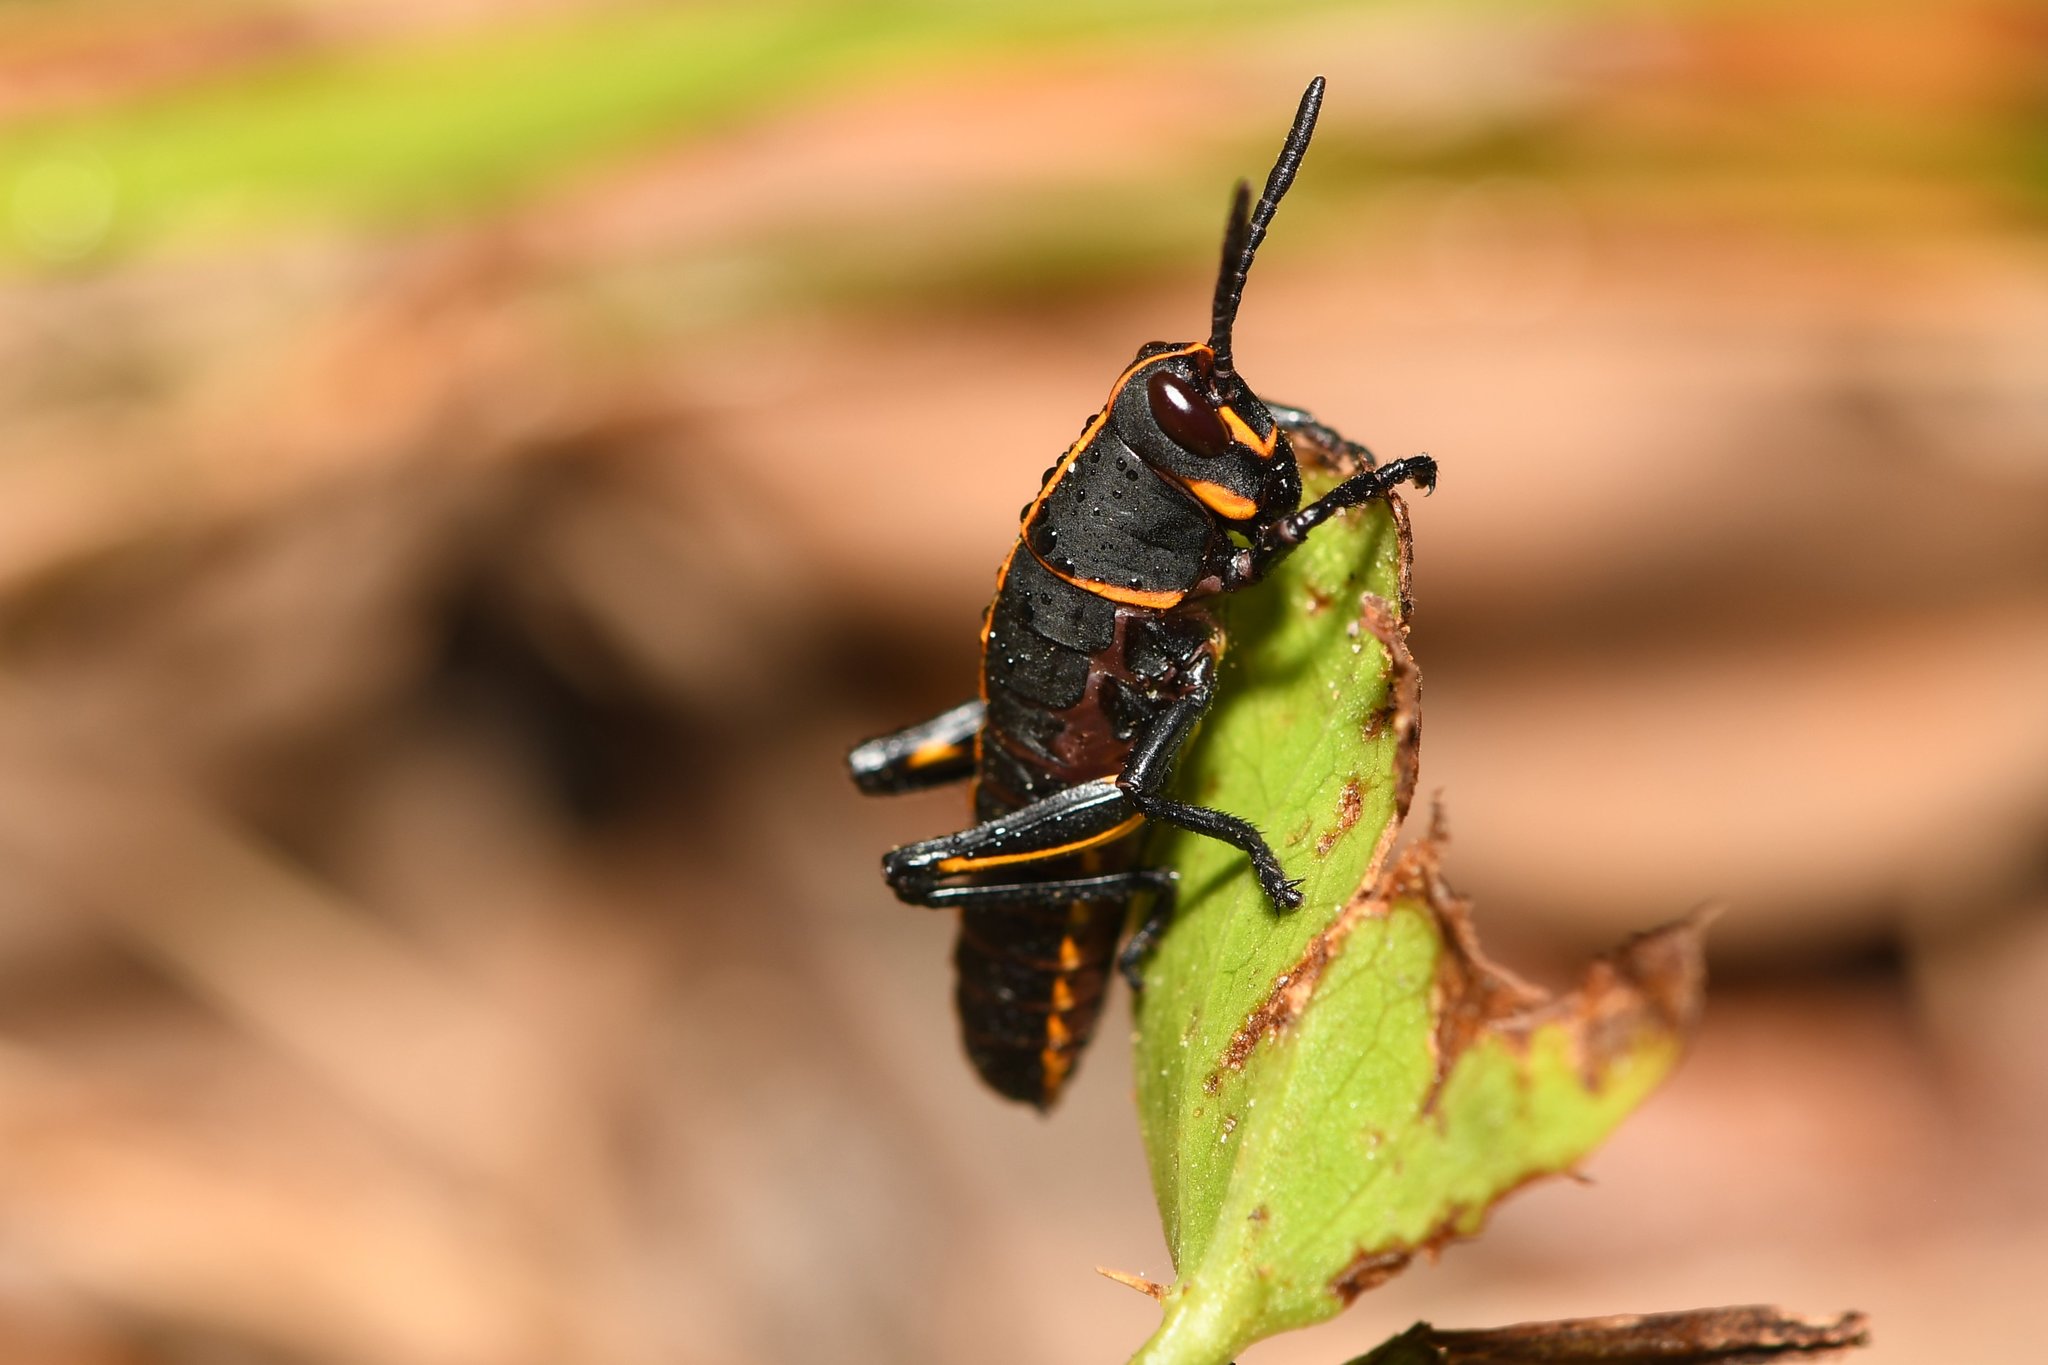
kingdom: Animalia
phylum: Arthropoda
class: Insecta
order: Orthoptera
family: Romaleidae
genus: Romalea
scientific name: Romalea microptera
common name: Eastern lubber grasshopper
